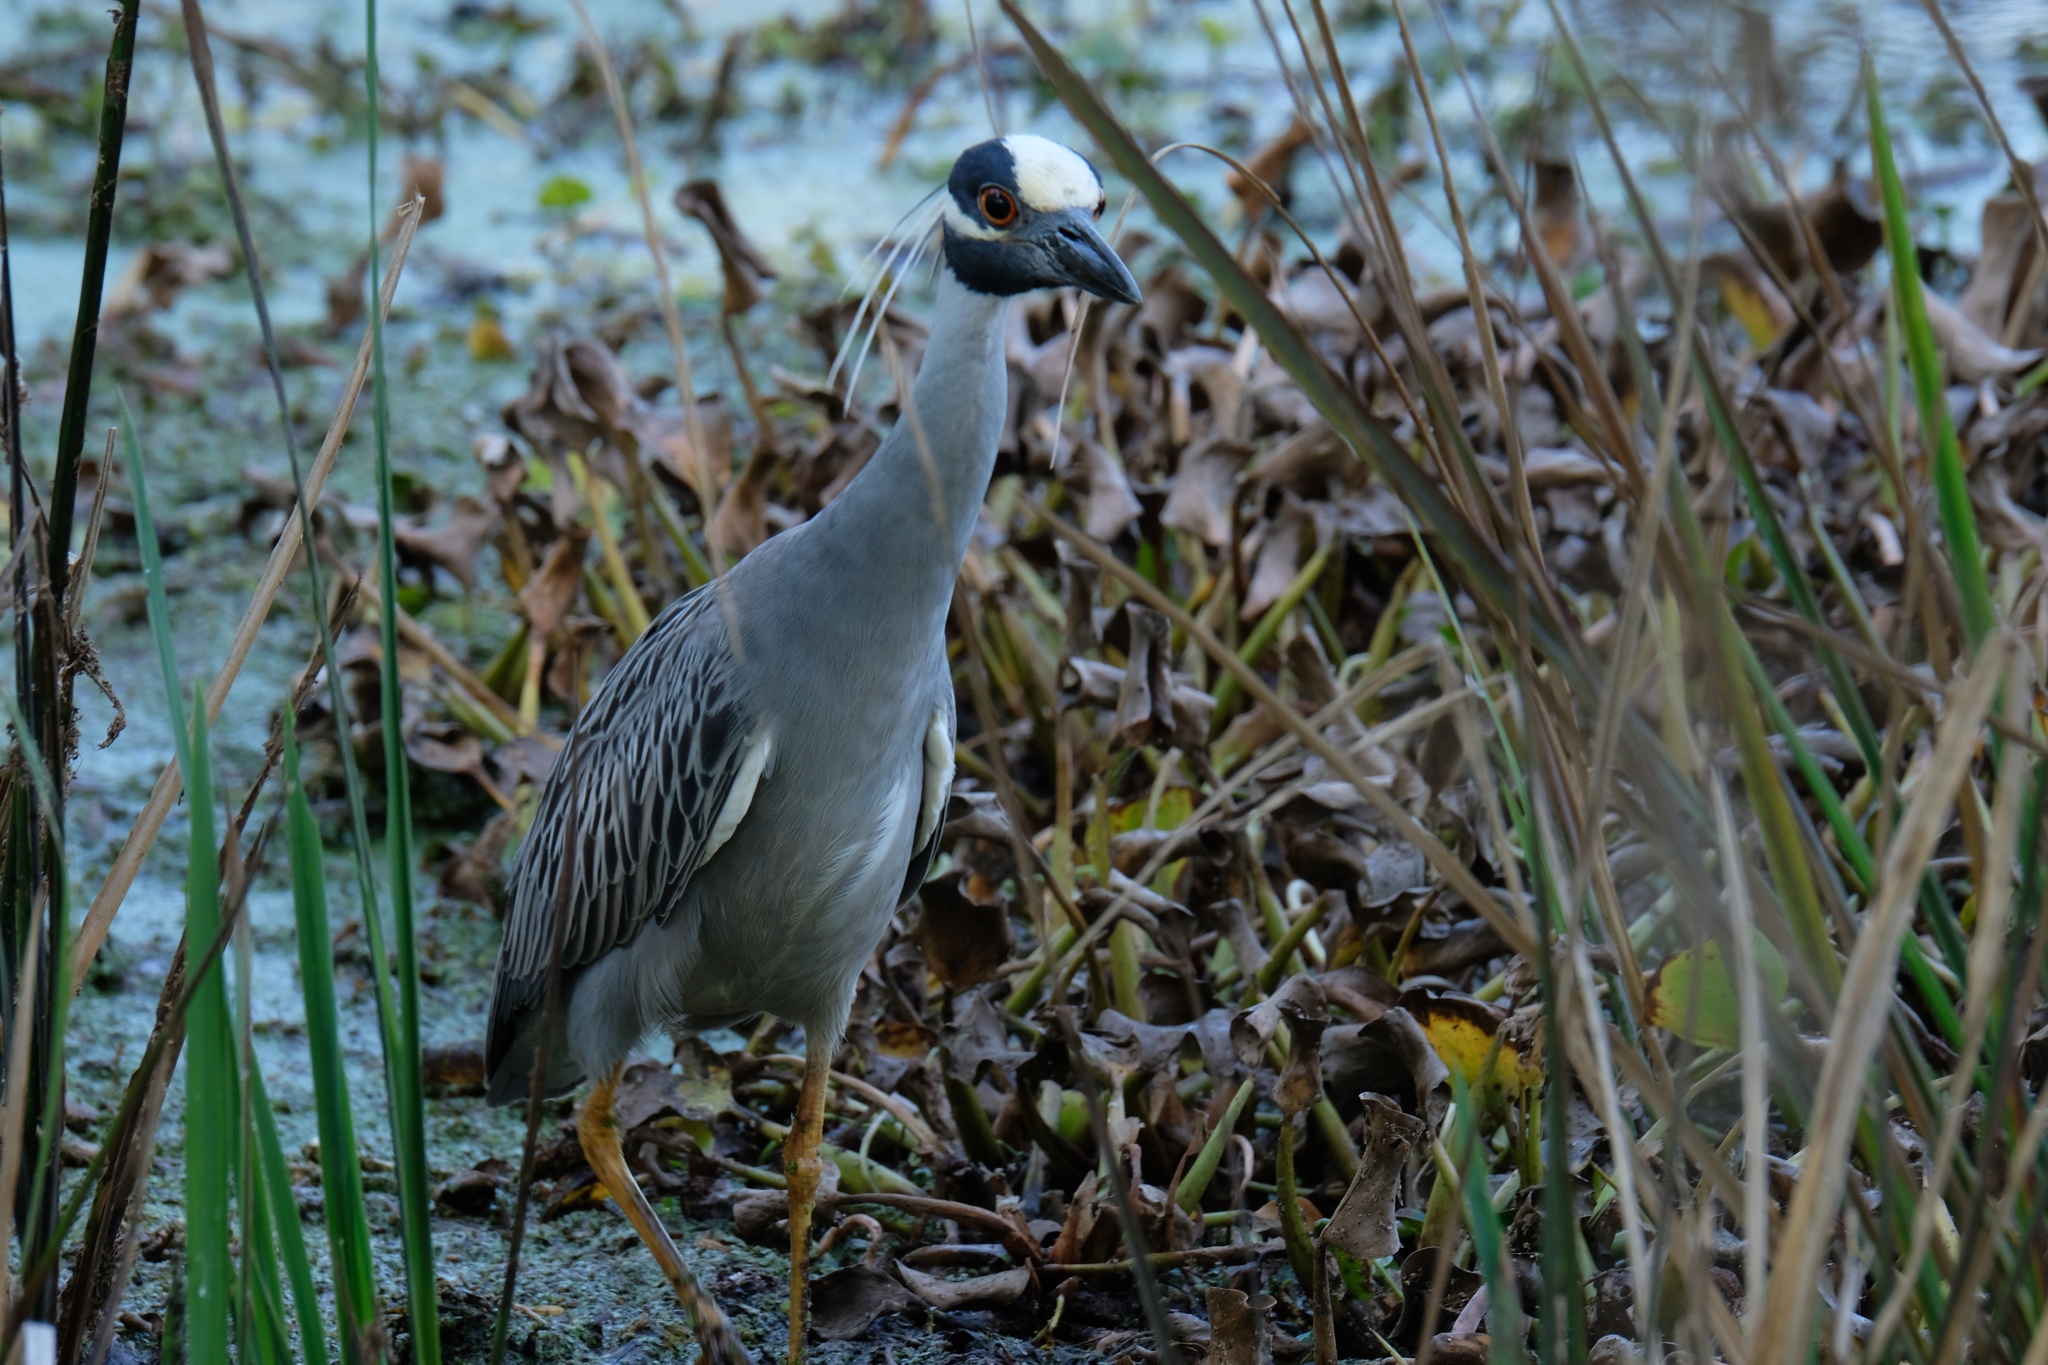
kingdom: Animalia
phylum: Chordata
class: Aves
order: Pelecaniformes
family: Ardeidae
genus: Nyctanassa
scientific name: Nyctanassa violacea
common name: Yellow-crowned night heron
